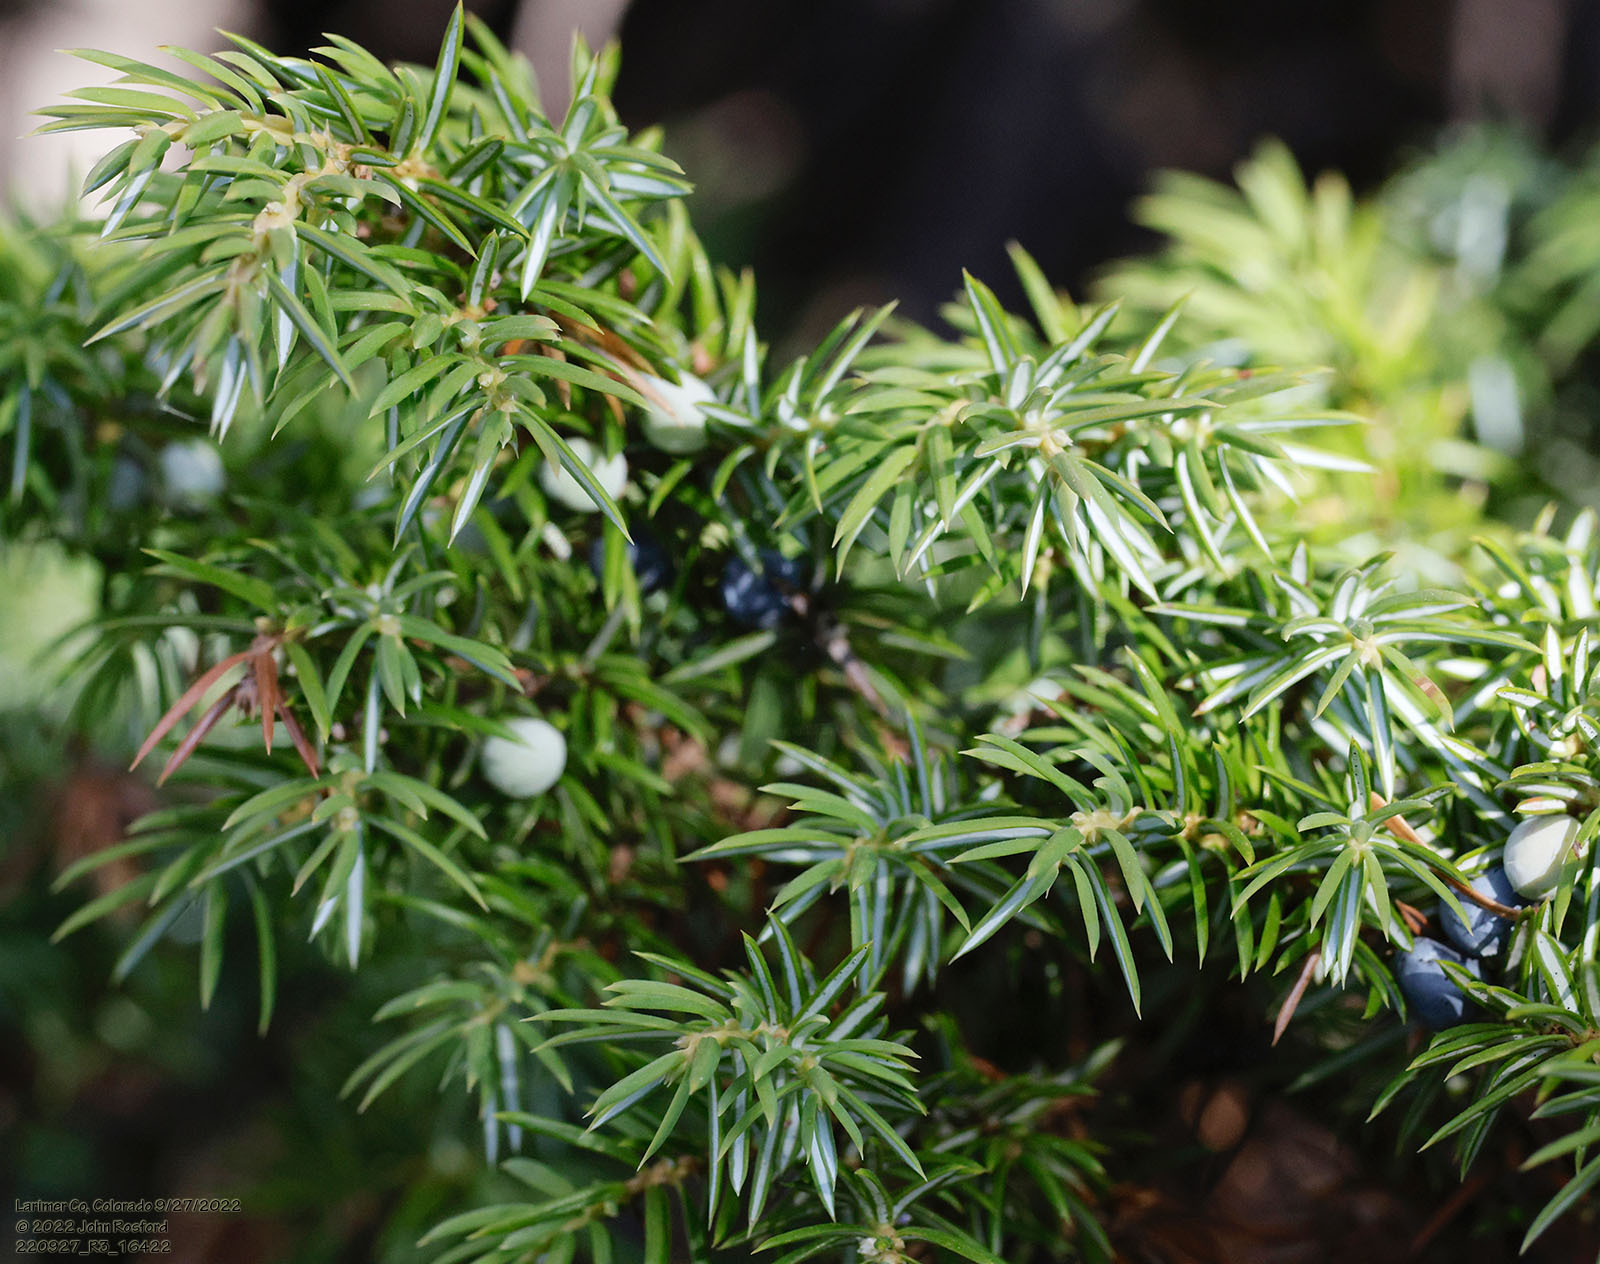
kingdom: Plantae
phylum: Tracheophyta
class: Pinopsida
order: Pinales
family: Cupressaceae
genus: Juniperus
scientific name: Juniperus communis
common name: Common juniper
